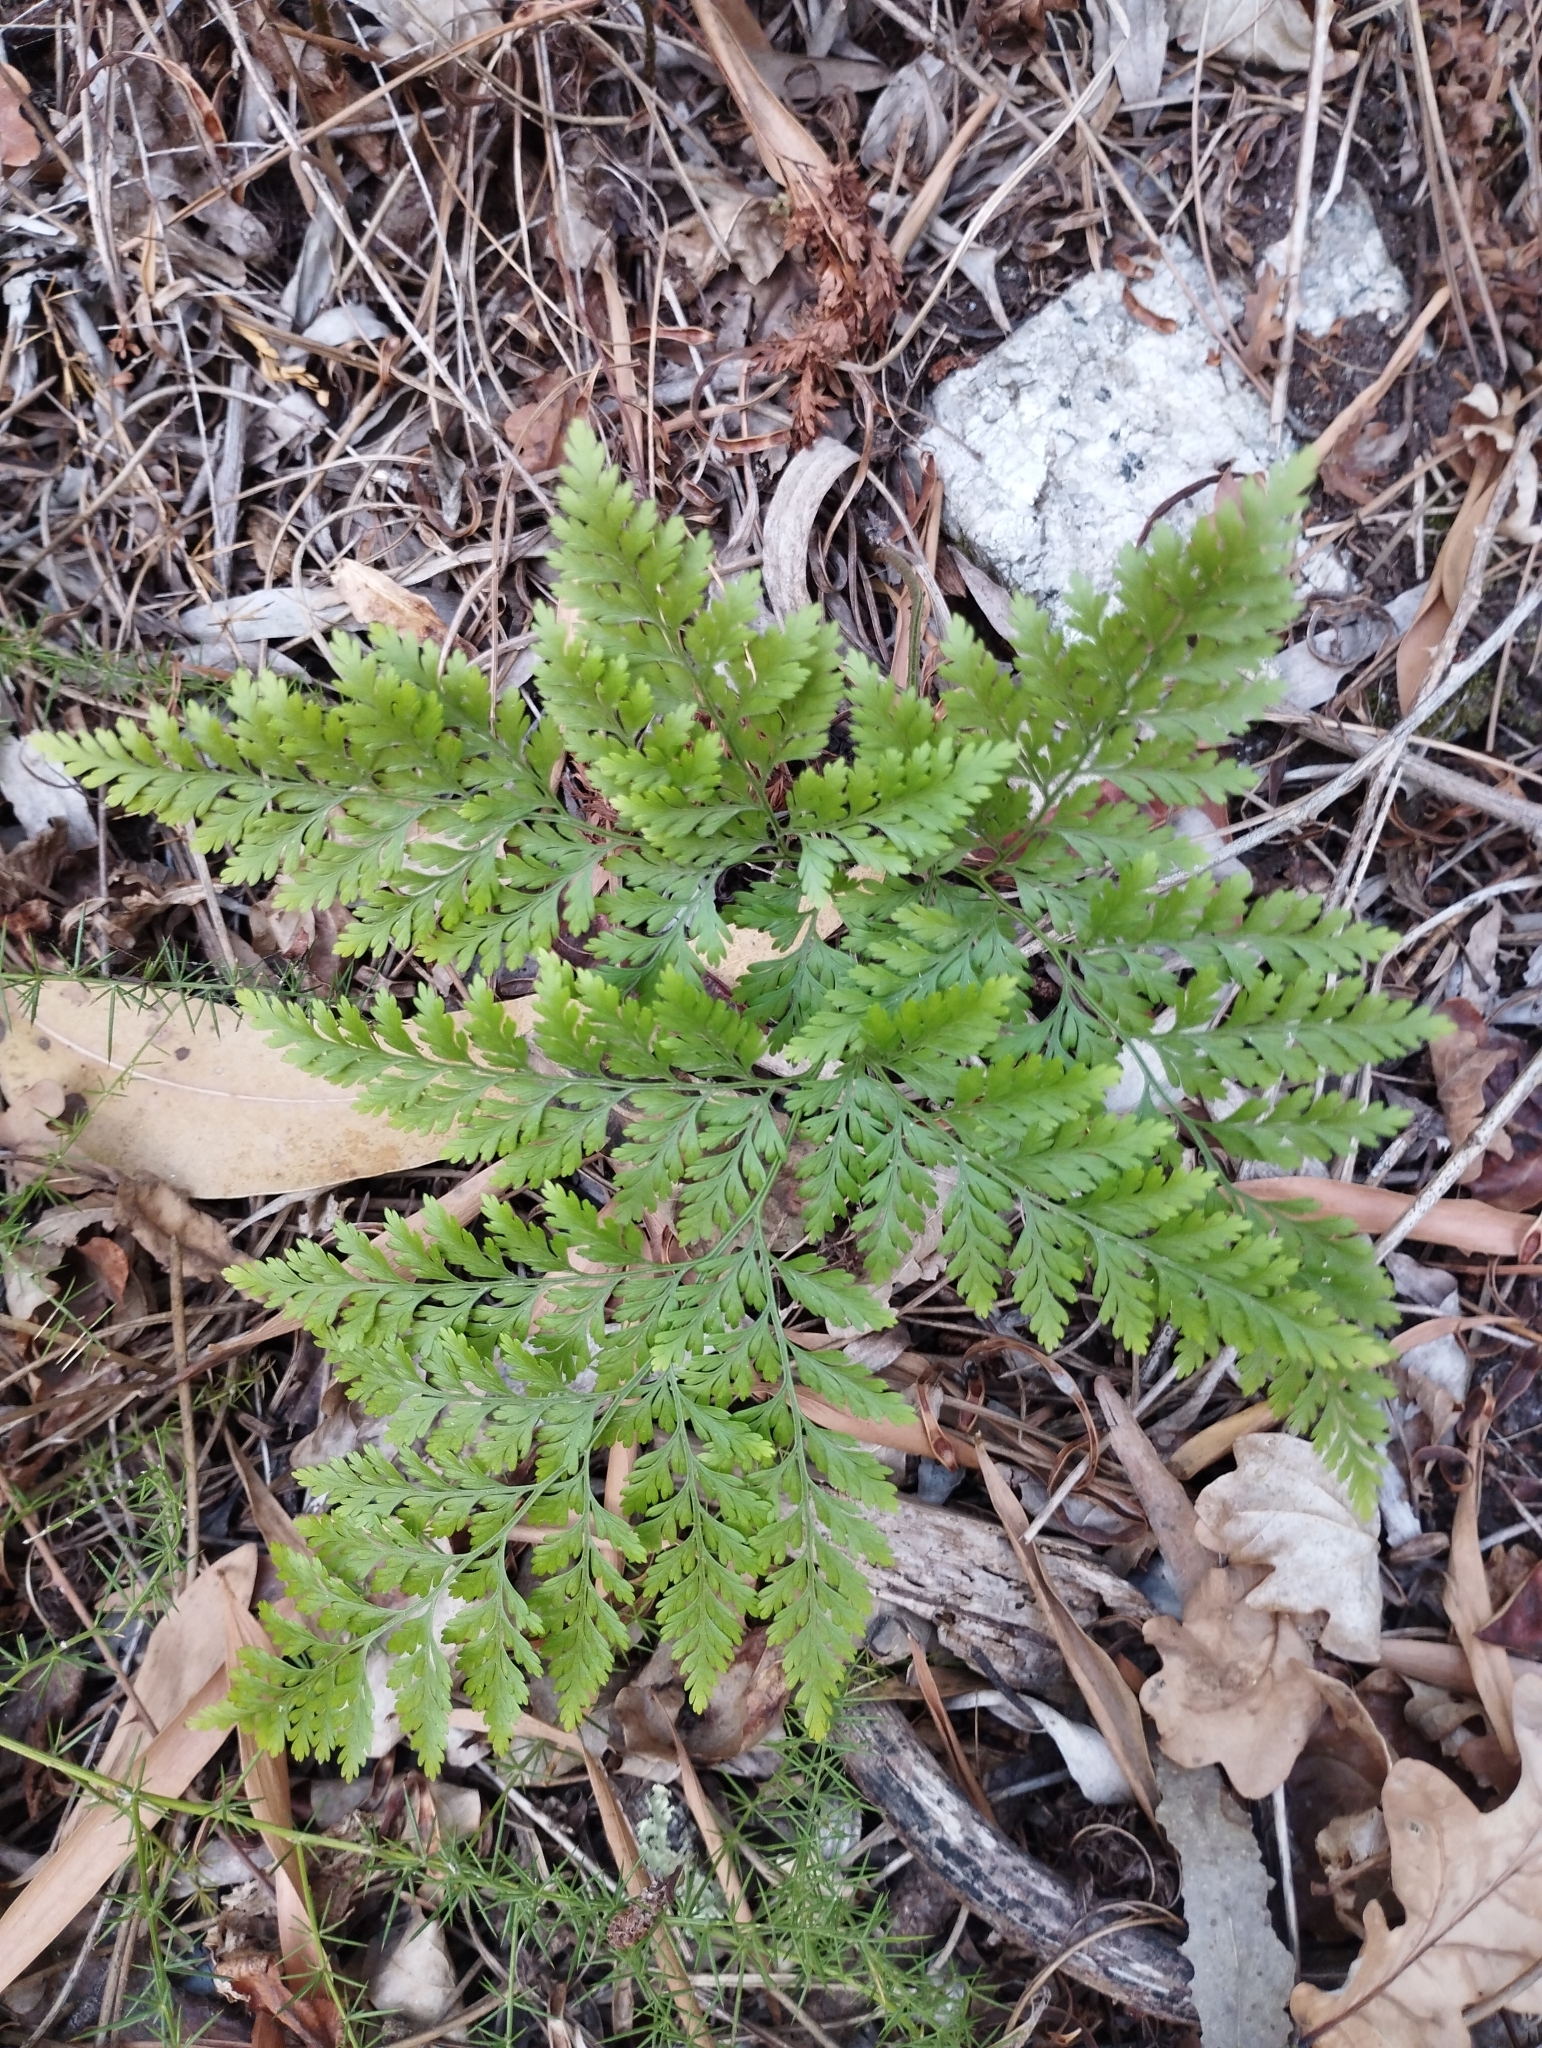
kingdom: Plantae
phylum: Tracheophyta
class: Polypodiopsida
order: Polypodiales
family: Davalliaceae
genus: Davallia
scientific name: Davallia canariensis
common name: Hare's-foot fern
